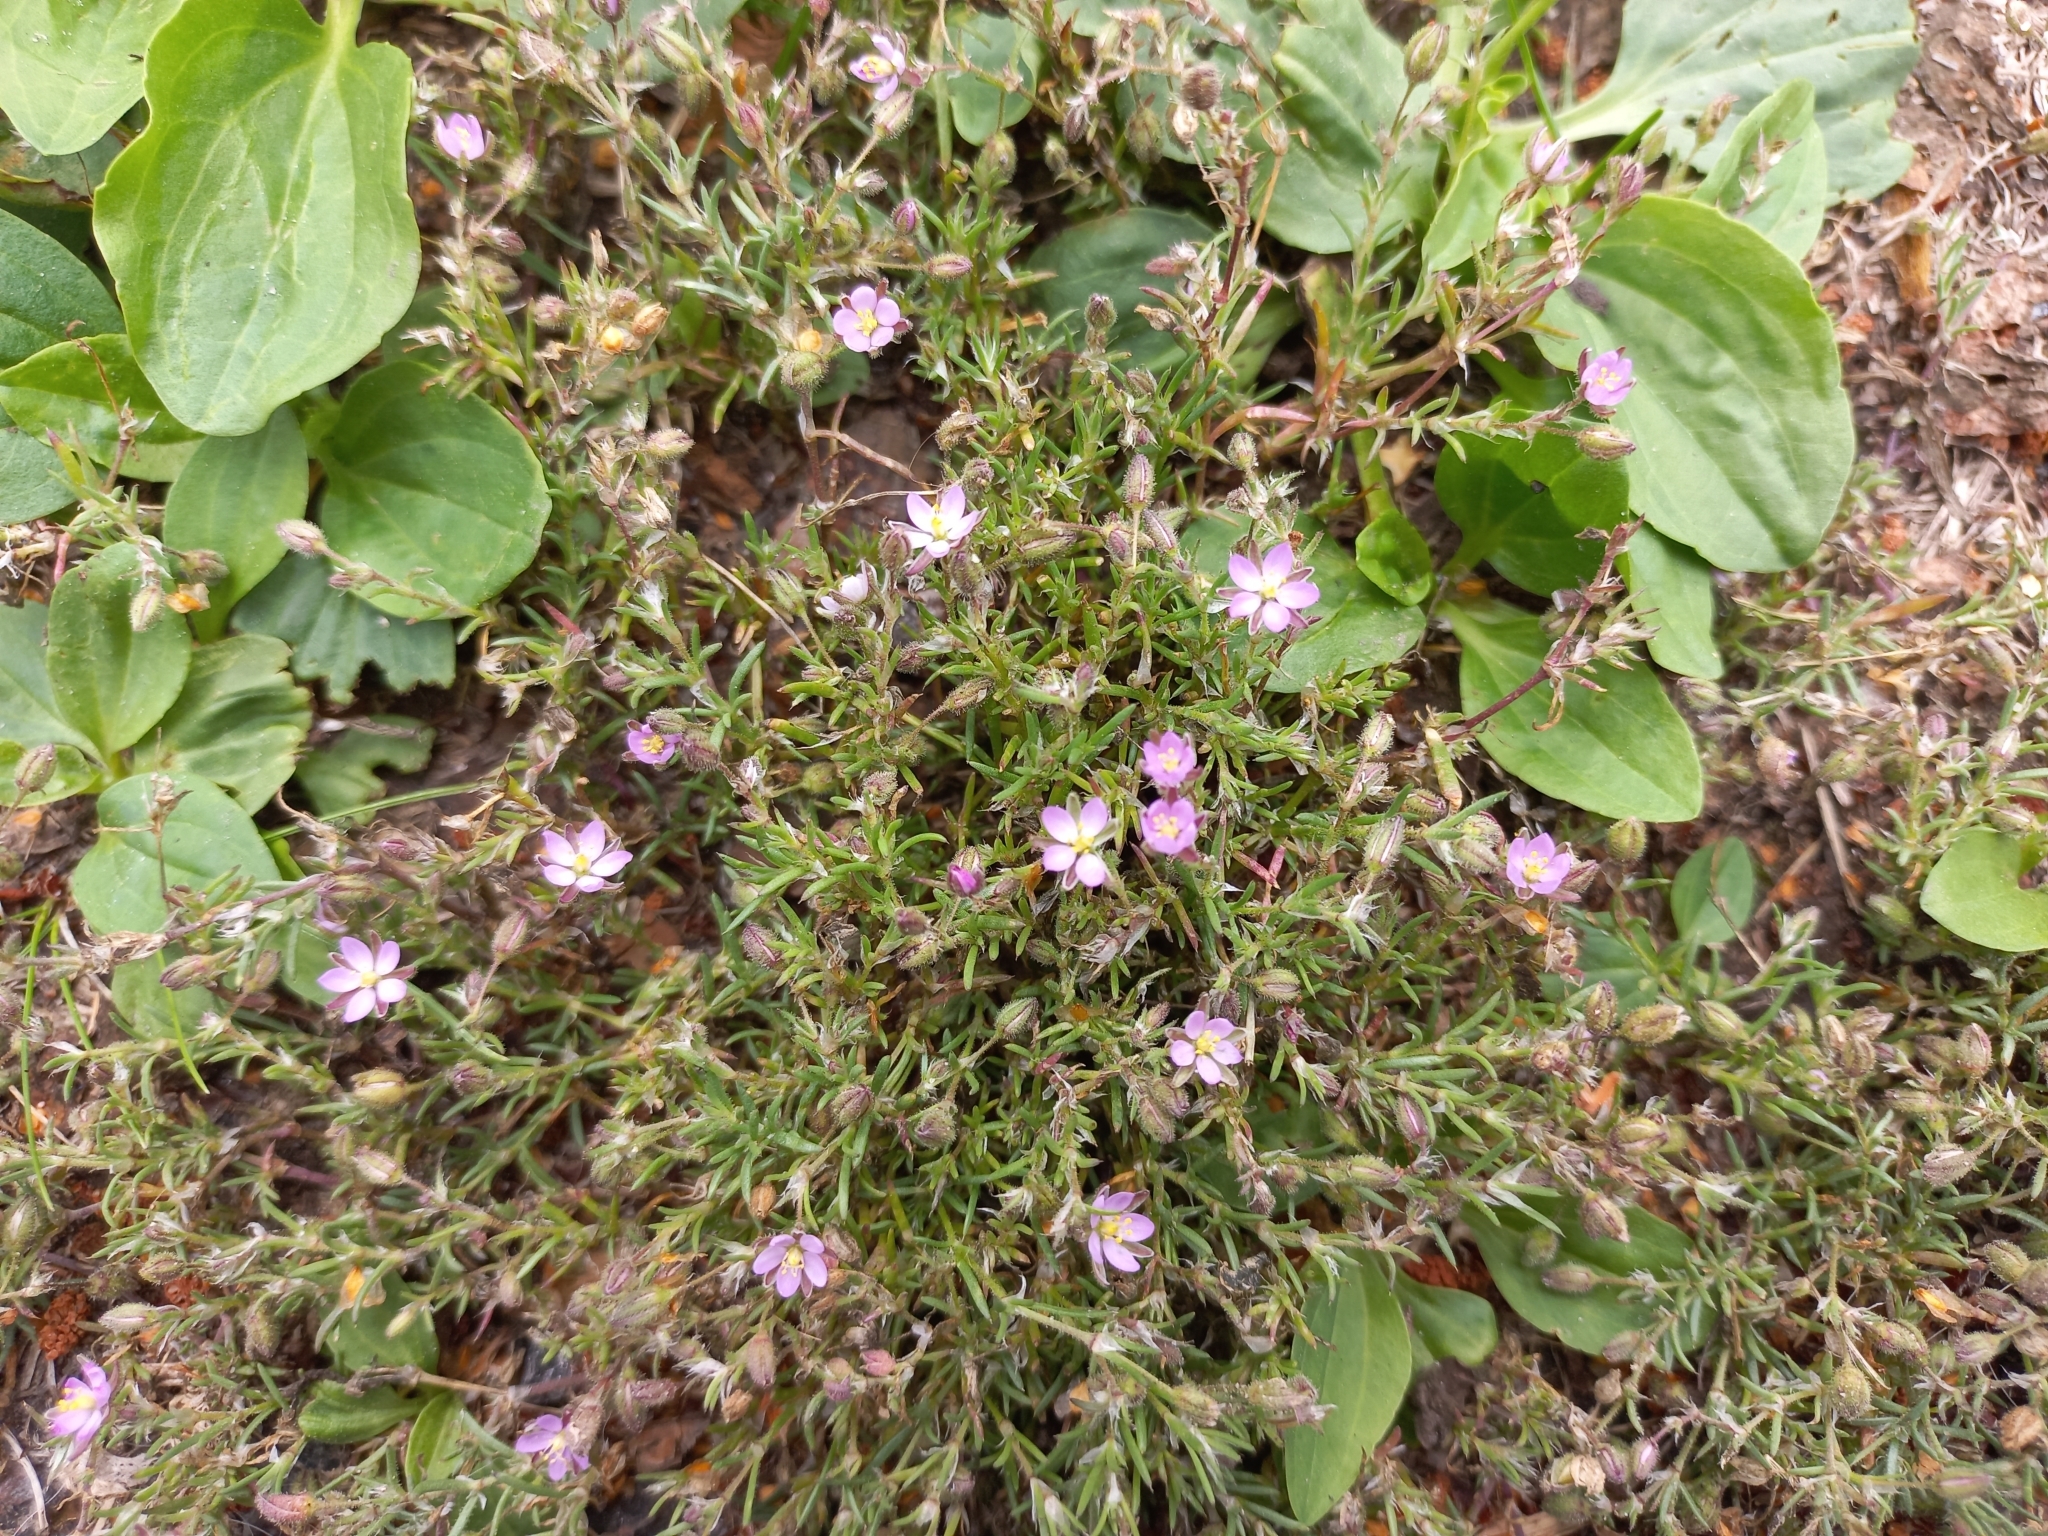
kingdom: Plantae
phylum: Tracheophyta
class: Magnoliopsida
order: Caryophyllales
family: Caryophyllaceae
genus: Spergularia
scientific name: Spergularia rubra
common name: Red sand-spurrey
